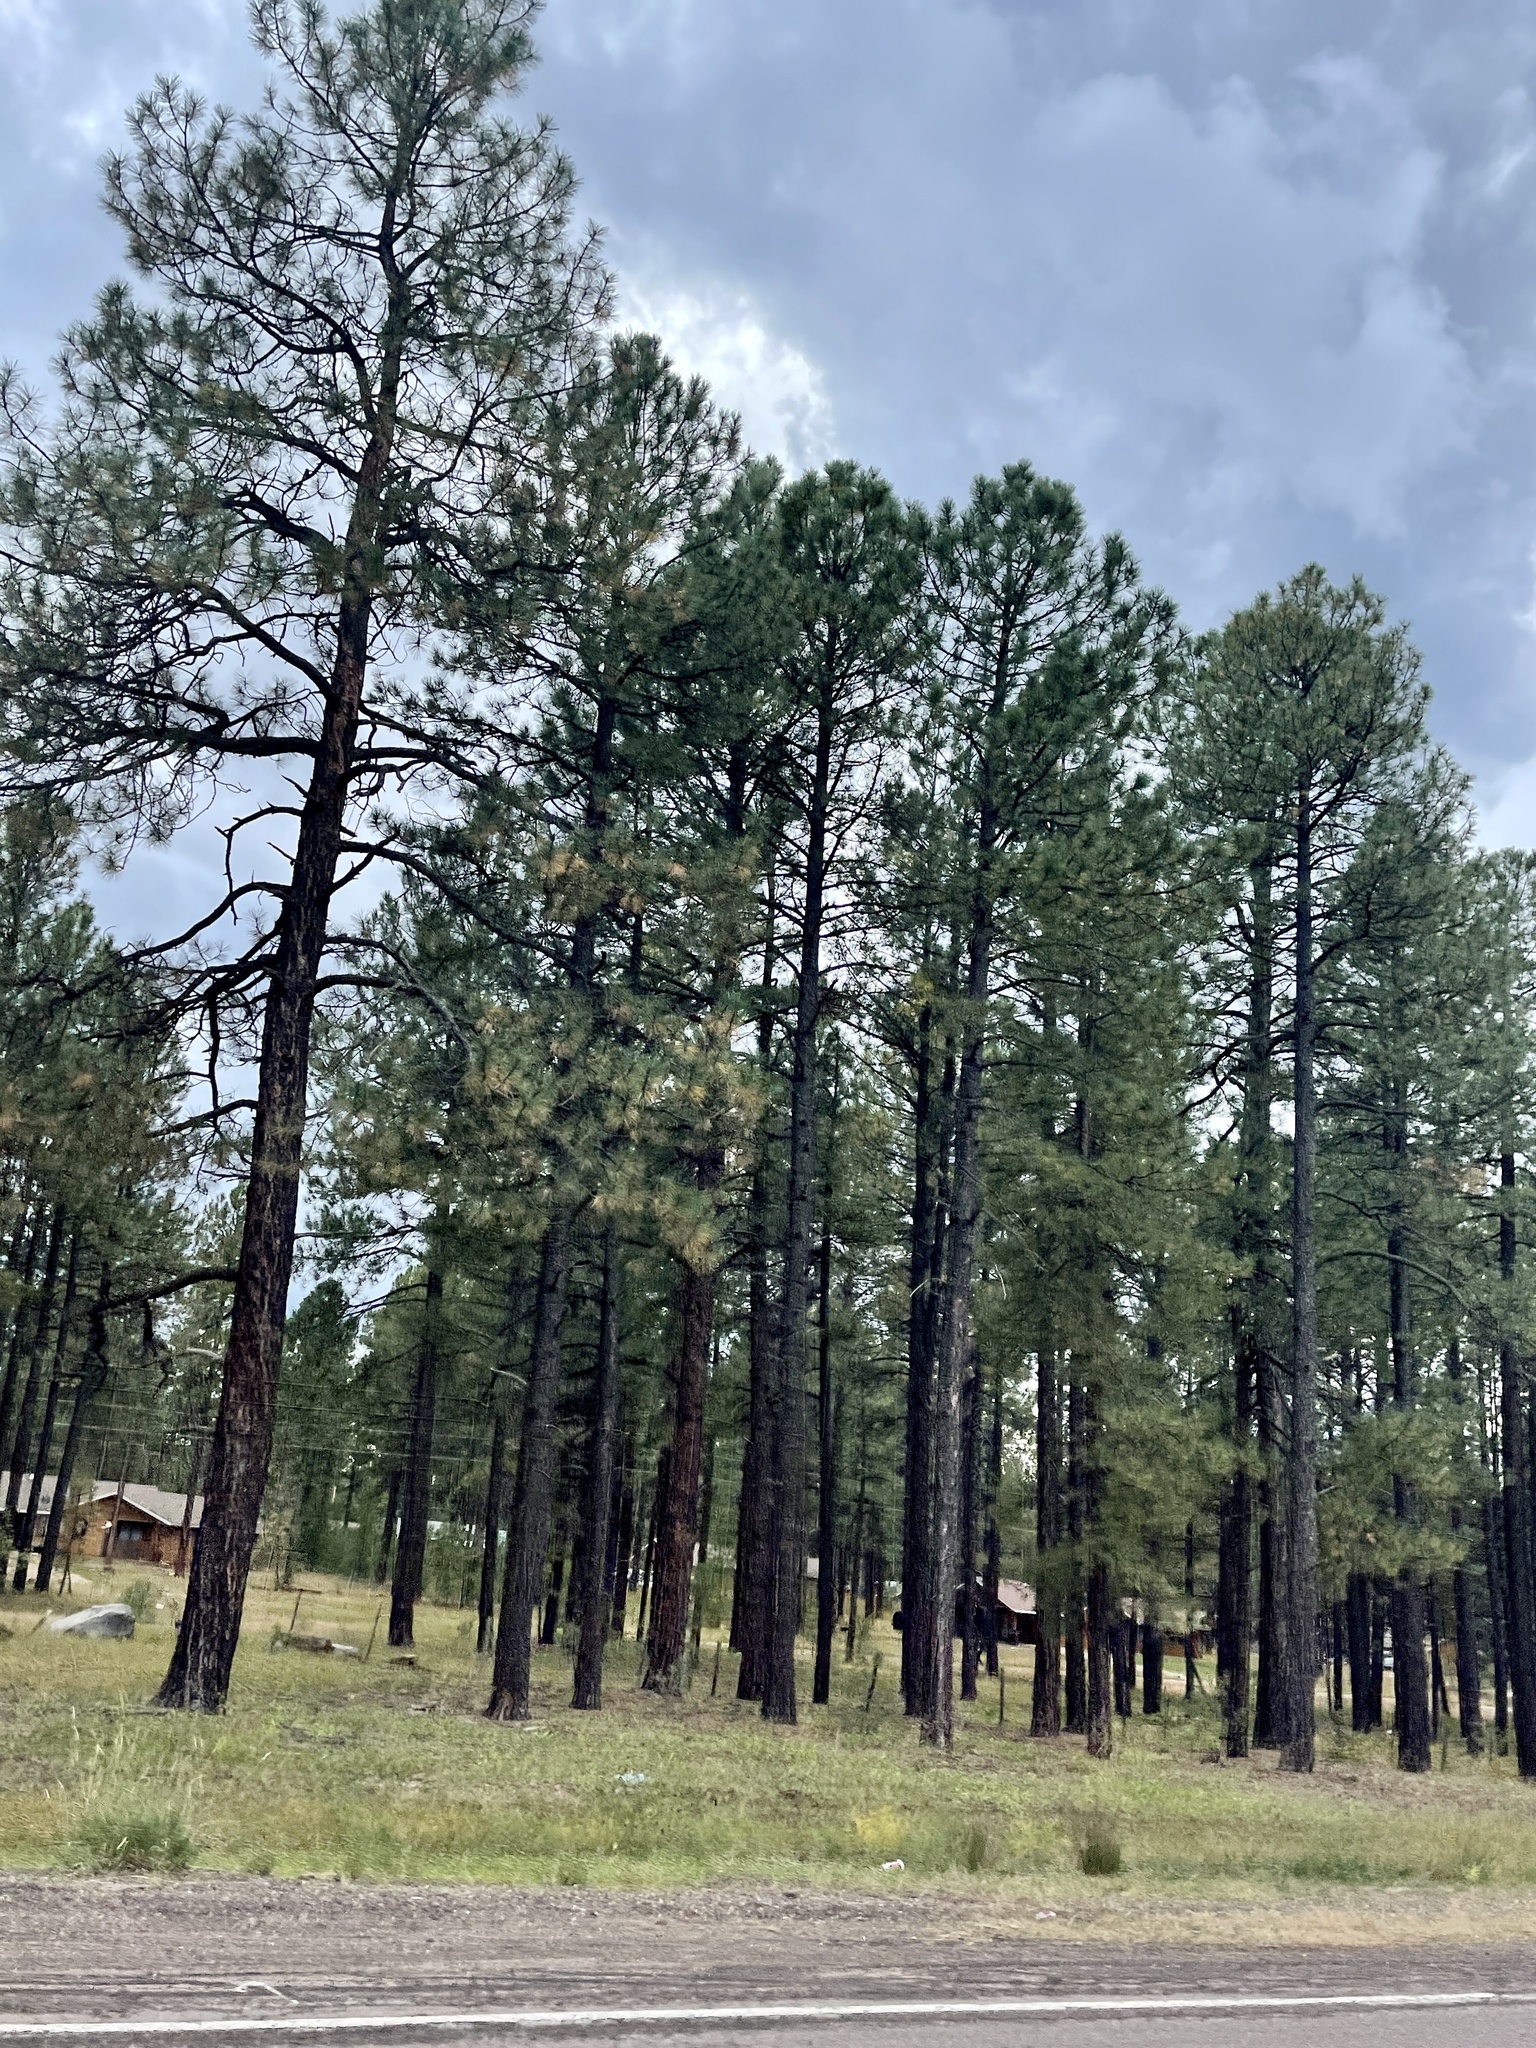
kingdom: Plantae
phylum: Tracheophyta
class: Pinopsida
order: Pinales
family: Pinaceae
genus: Pinus
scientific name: Pinus ponderosa
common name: Western yellow-pine
